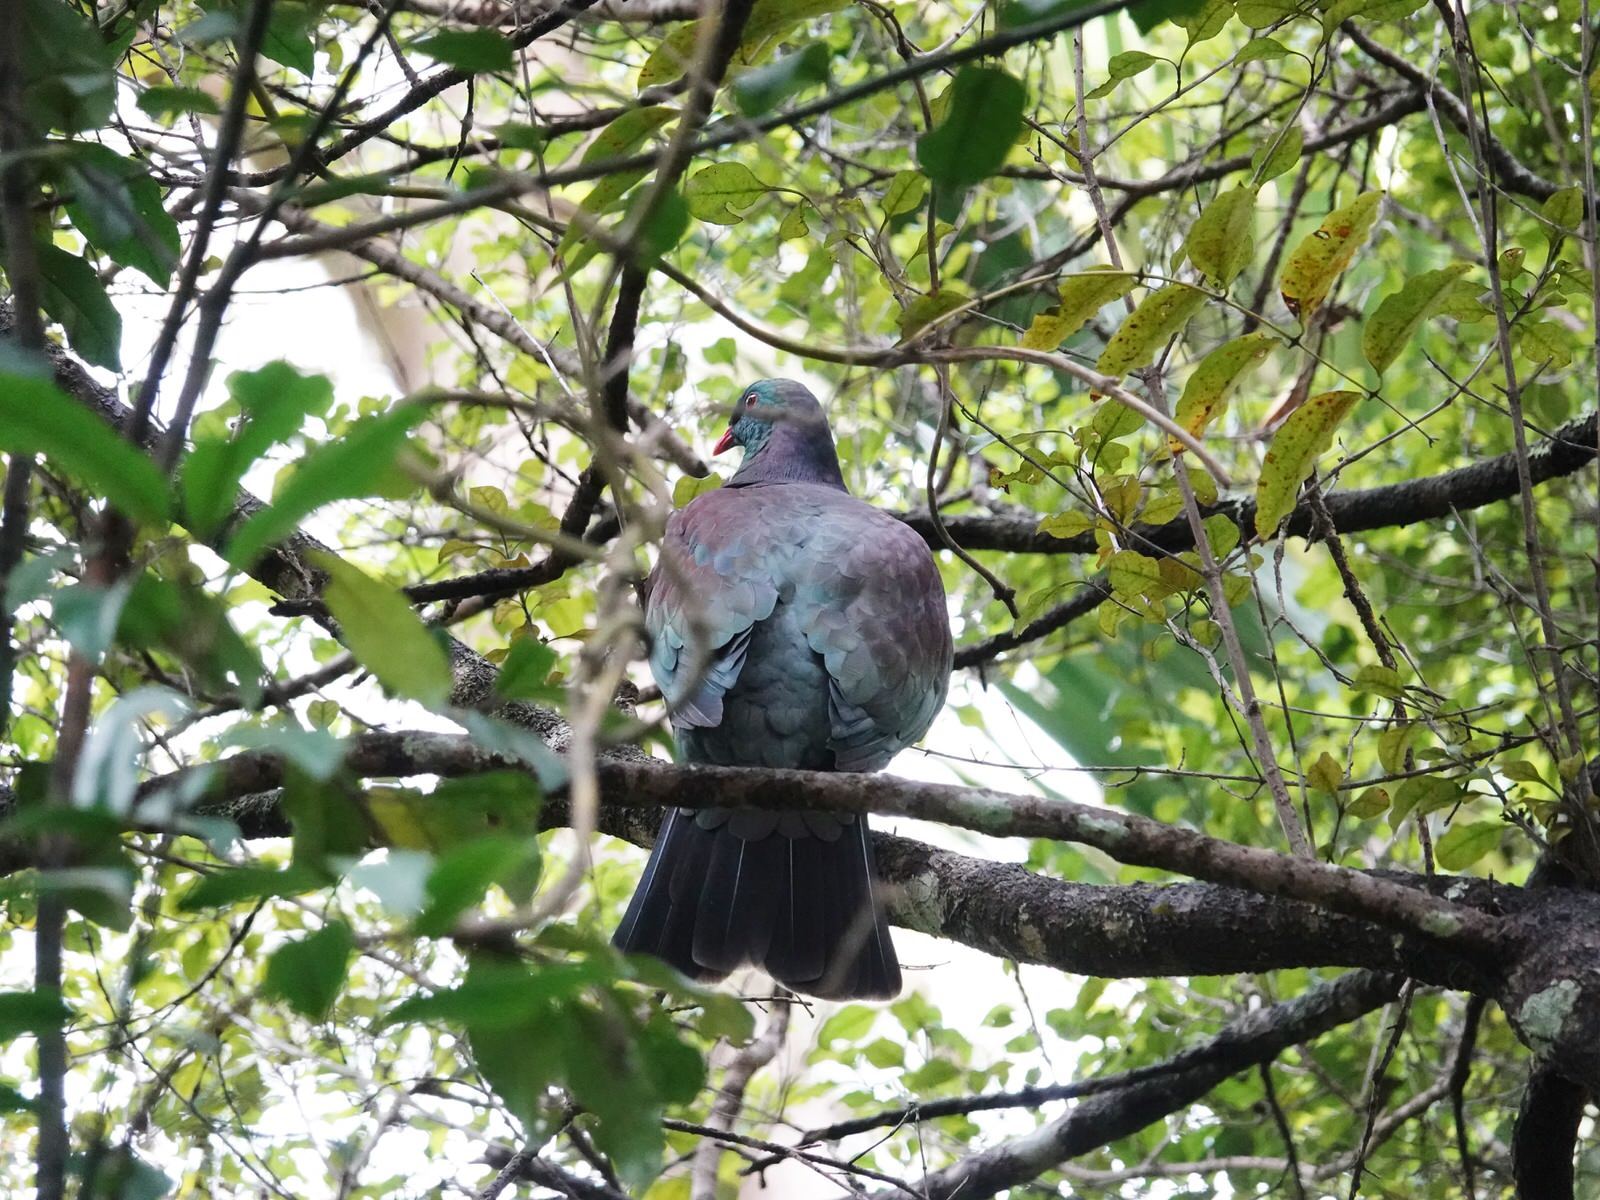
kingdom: Animalia
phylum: Chordata
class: Aves
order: Columbiformes
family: Columbidae
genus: Hemiphaga
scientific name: Hemiphaga novaeseelandiae
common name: New zealand pigeon
